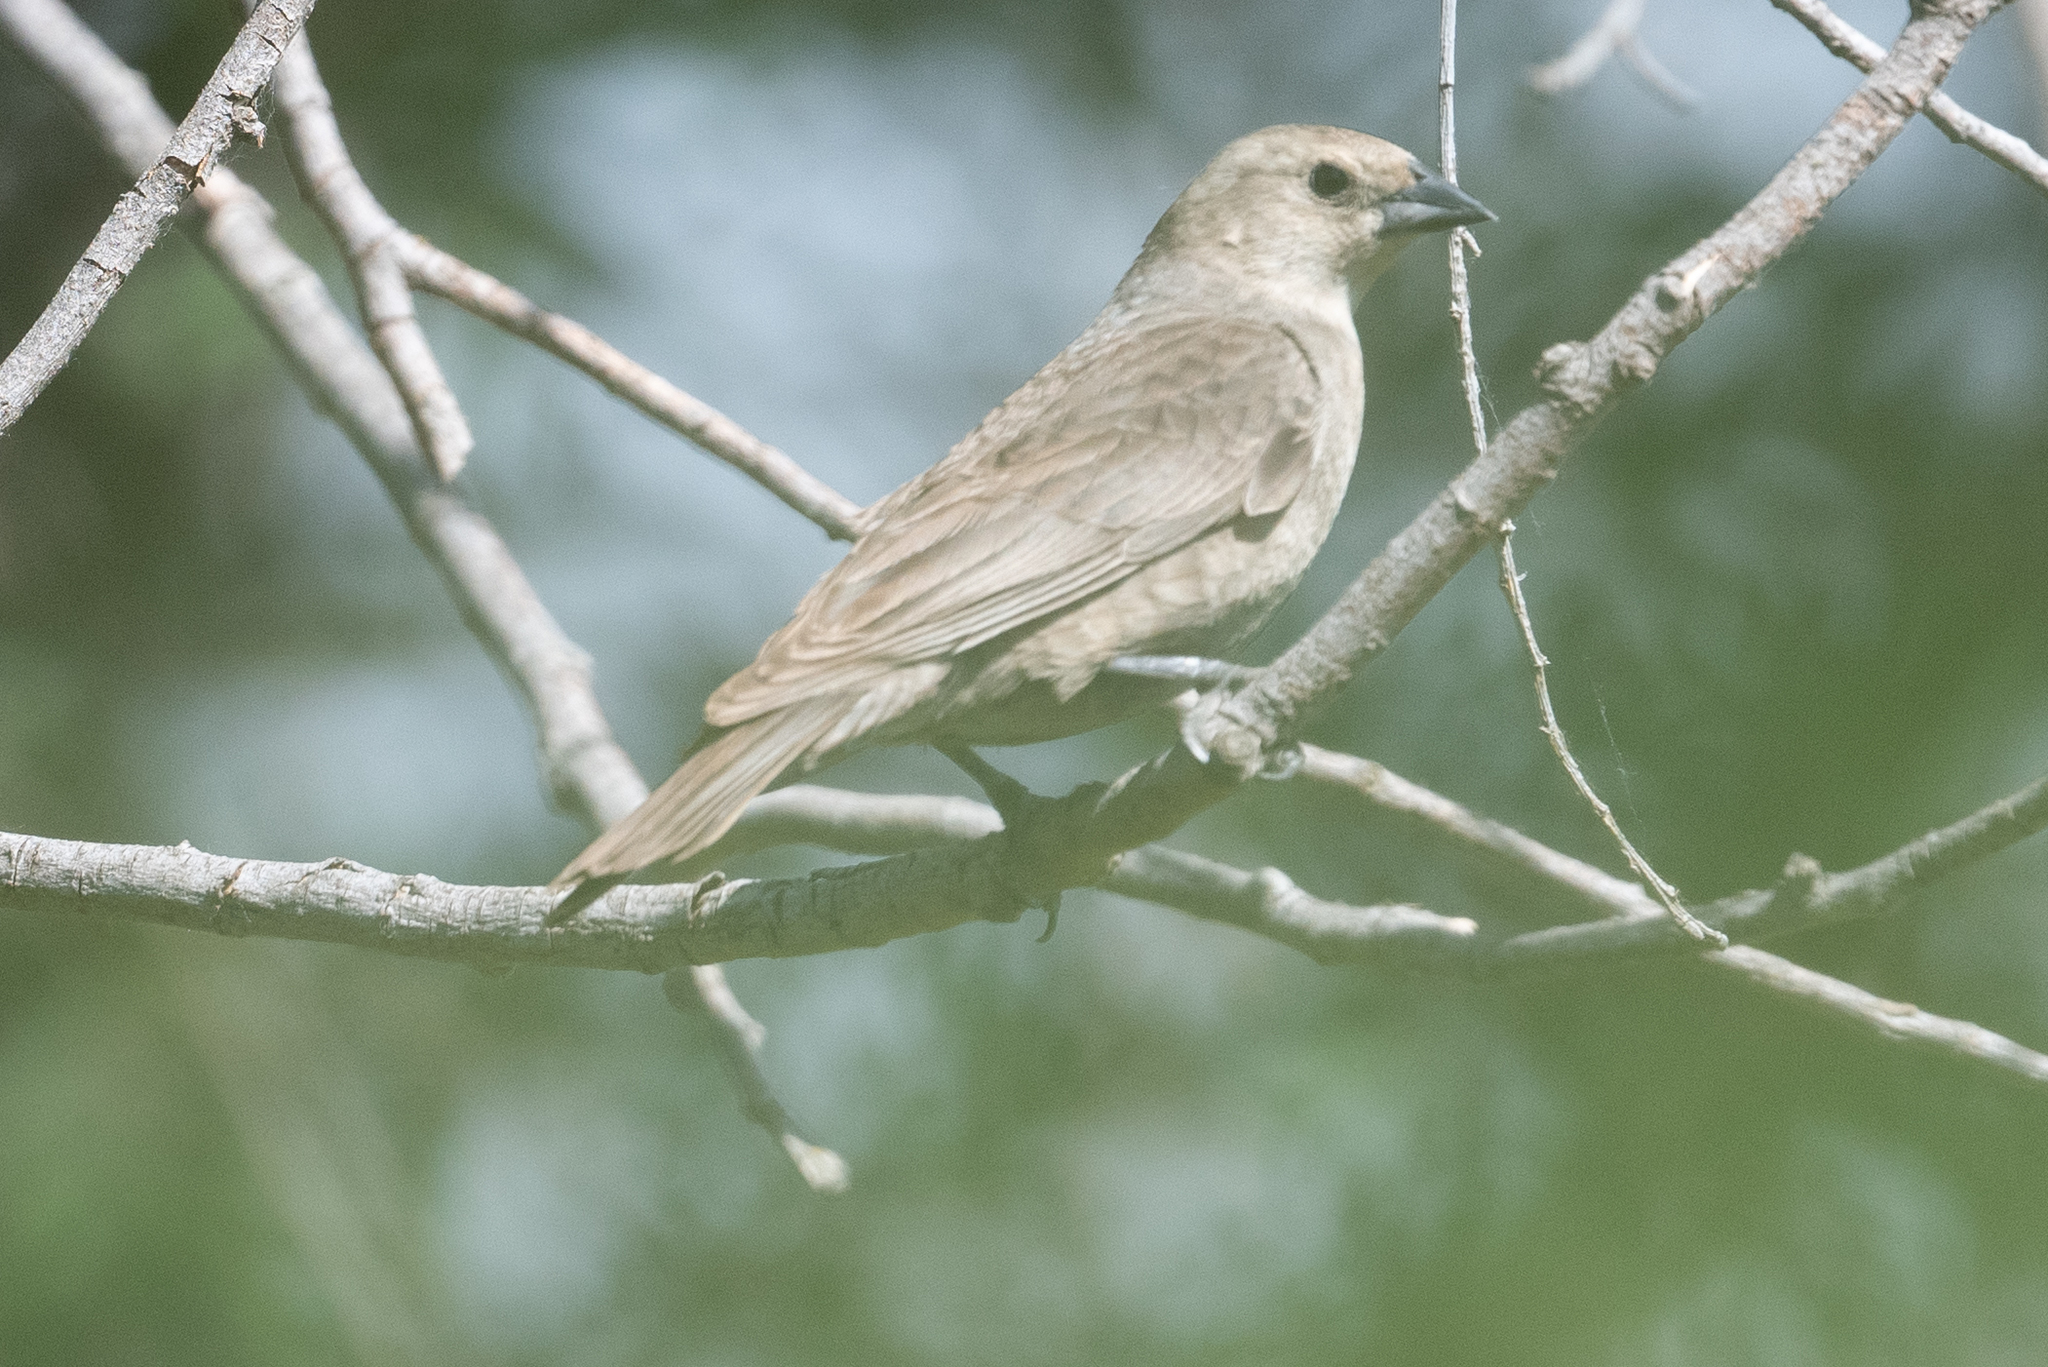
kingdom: Animalia
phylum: Chordata
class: Aves
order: Passeriformes
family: Icteridae
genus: Molothrus
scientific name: Molothrus ater
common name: Brown-headed cowbird
